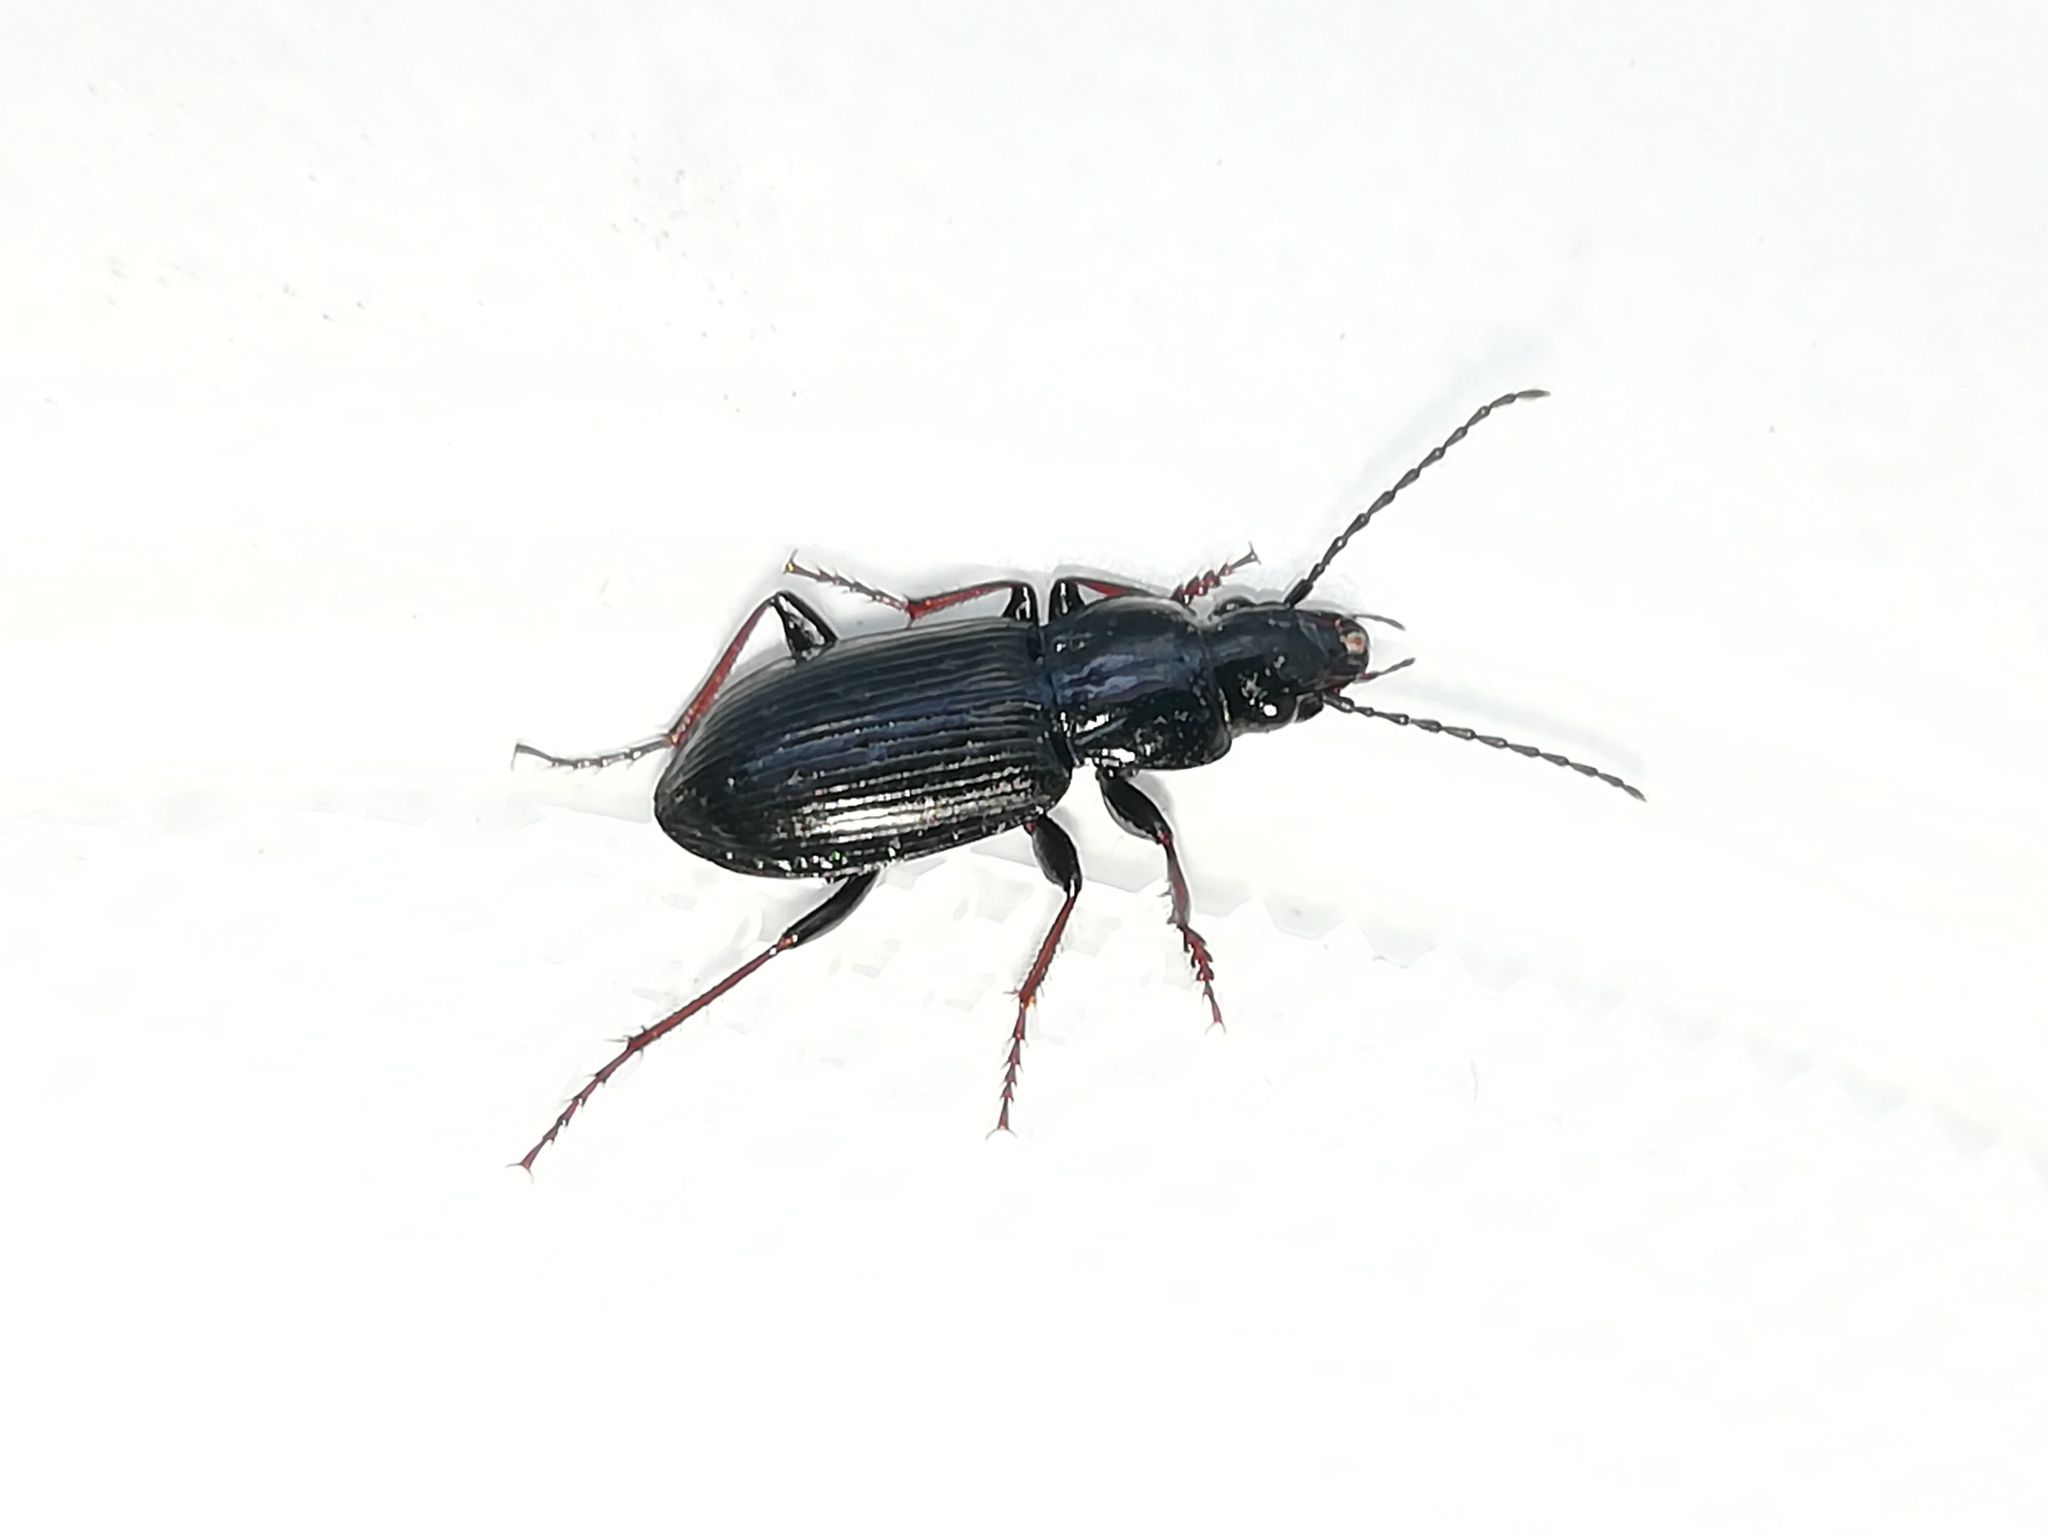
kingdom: Animalia
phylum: Arthropoda
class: Insecta
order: Coleoptera
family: Carabidae
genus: Pterostichus
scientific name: Pterostichus oblongopunctatus
